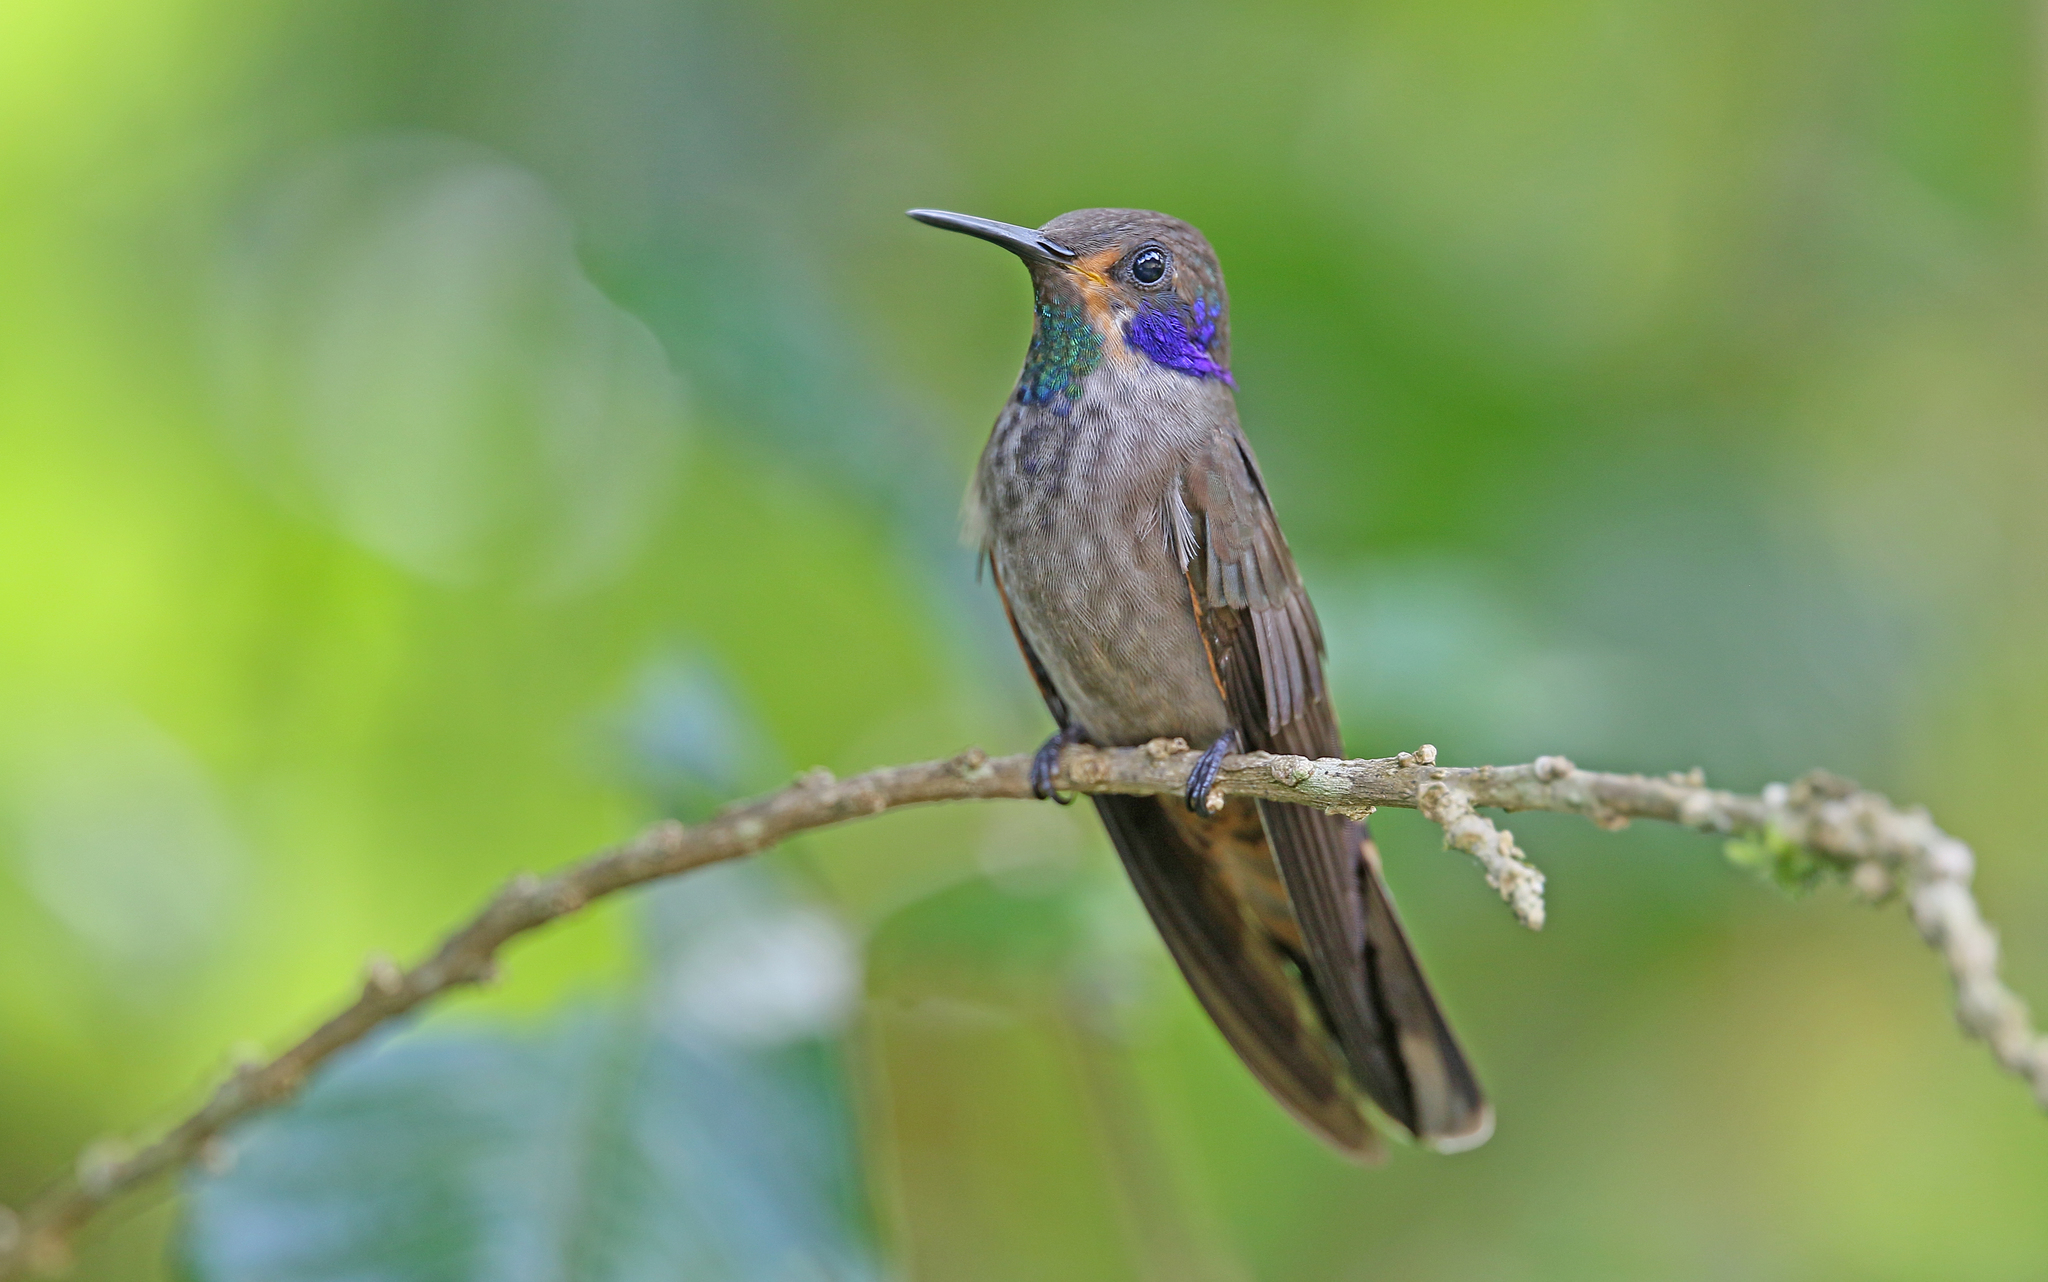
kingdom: Animalia
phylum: Chordata
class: Aves
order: Apodiformes
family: Trochilidae
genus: Colibri
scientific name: Colibri delphinae
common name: Brown violetear
